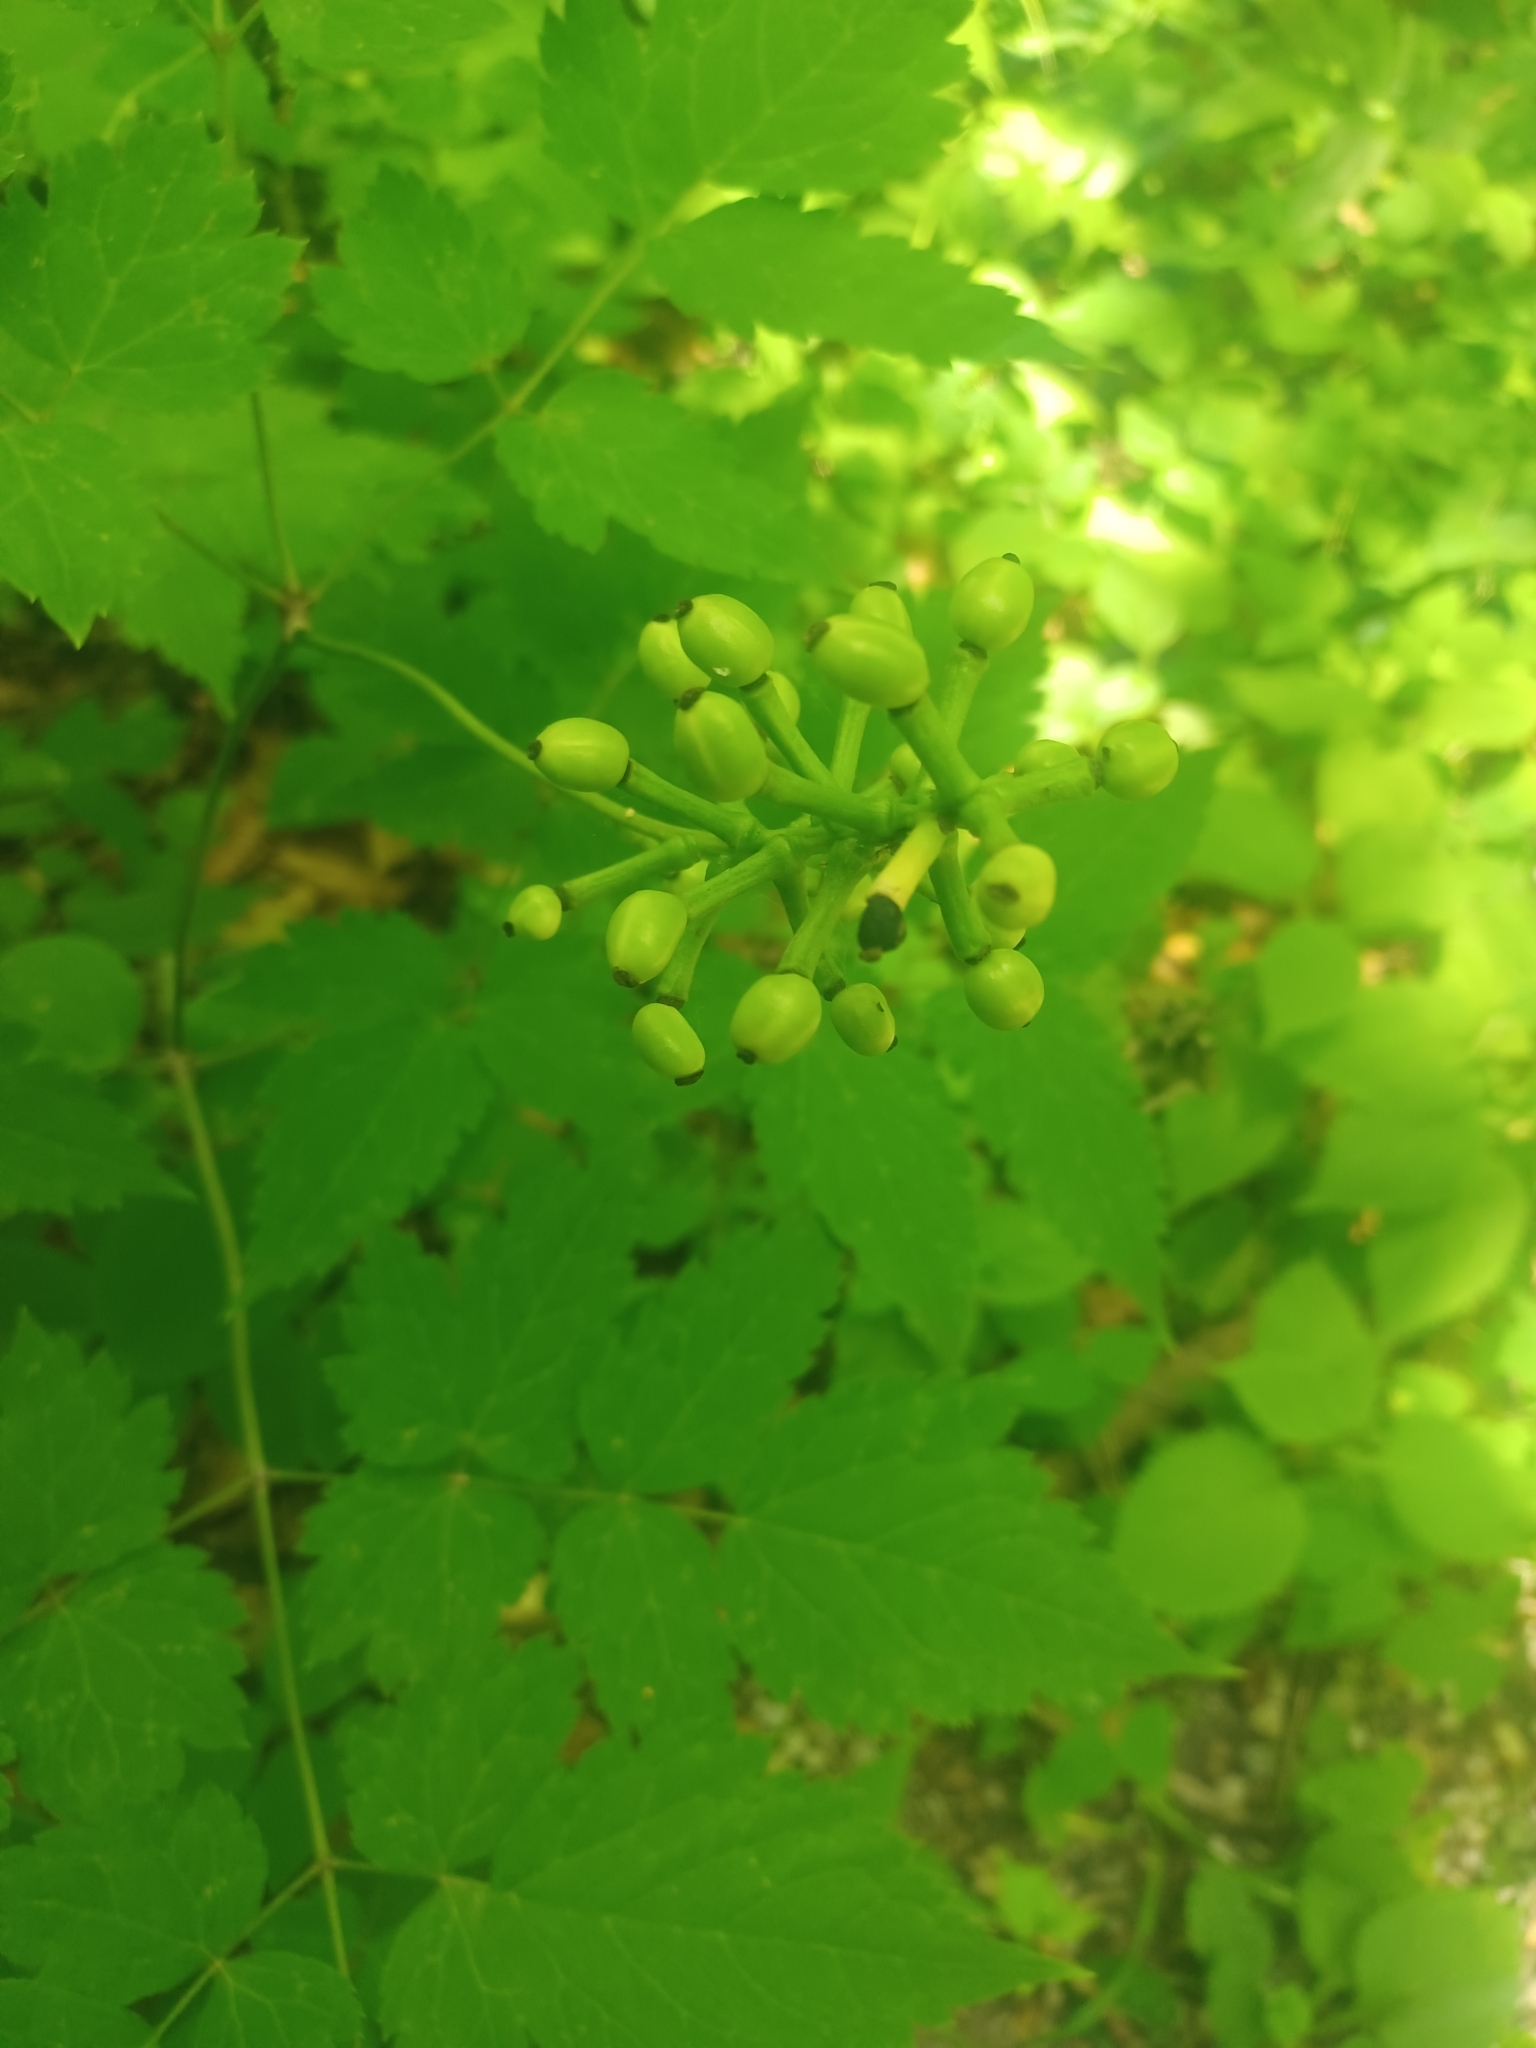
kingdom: Plantae
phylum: Tracheophyta
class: Magnoliopsida
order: Ranunculales
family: Ranunculaceae
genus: Actaea
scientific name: Actaea pachypoda
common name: Doll's-eyes
